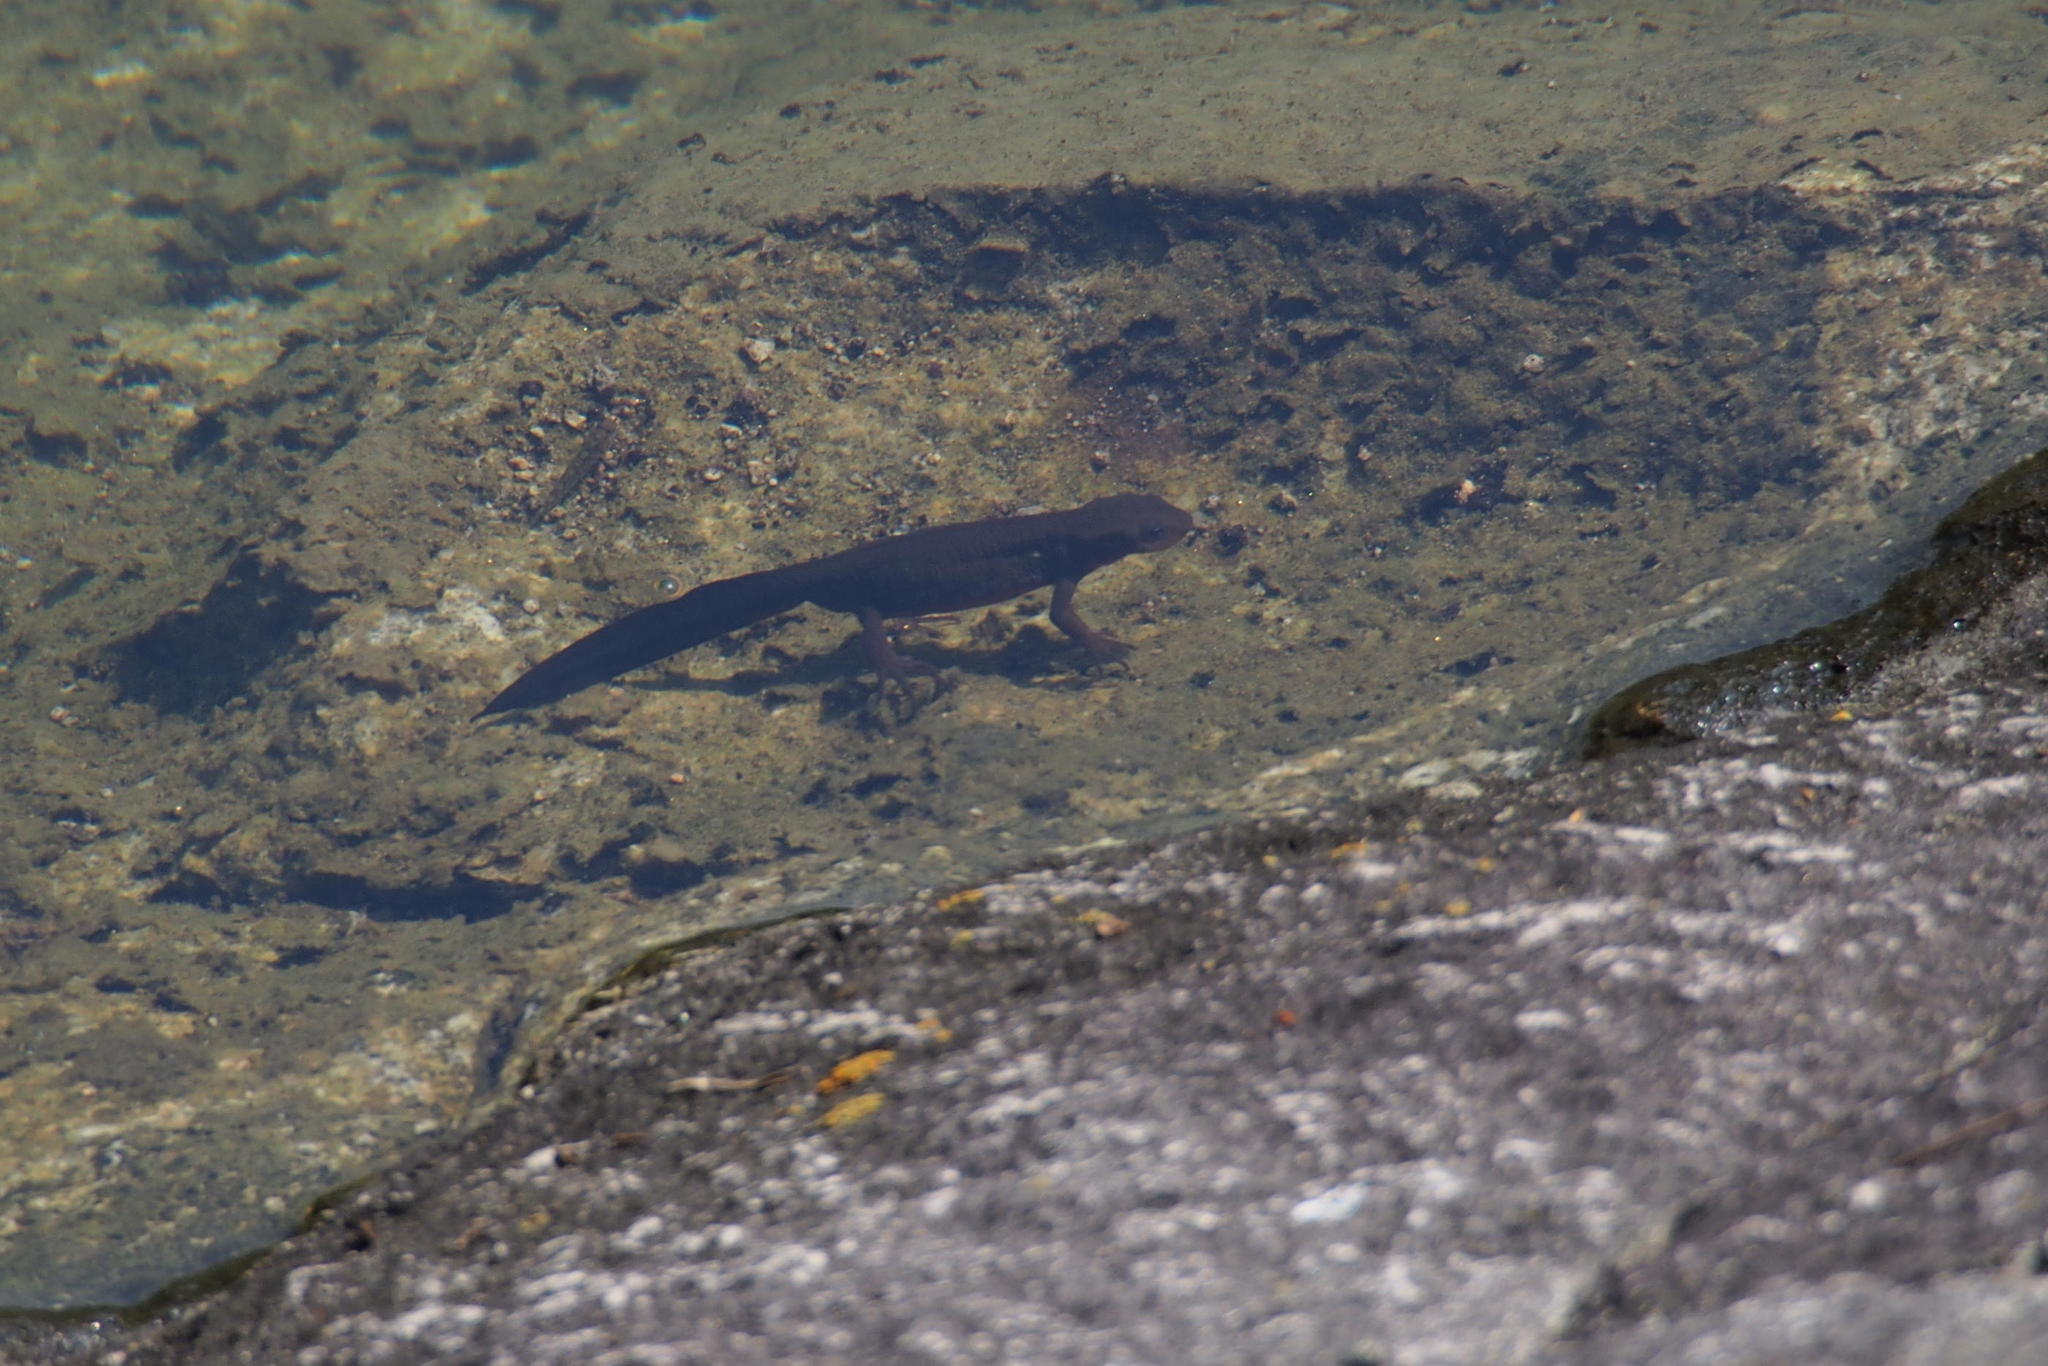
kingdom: Animalia
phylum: Chordata
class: Amphibia
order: Caudata
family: Salamandridae
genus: Cynops
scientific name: Cynops pyrrhogaster
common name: Japanese fire-bellied newt
